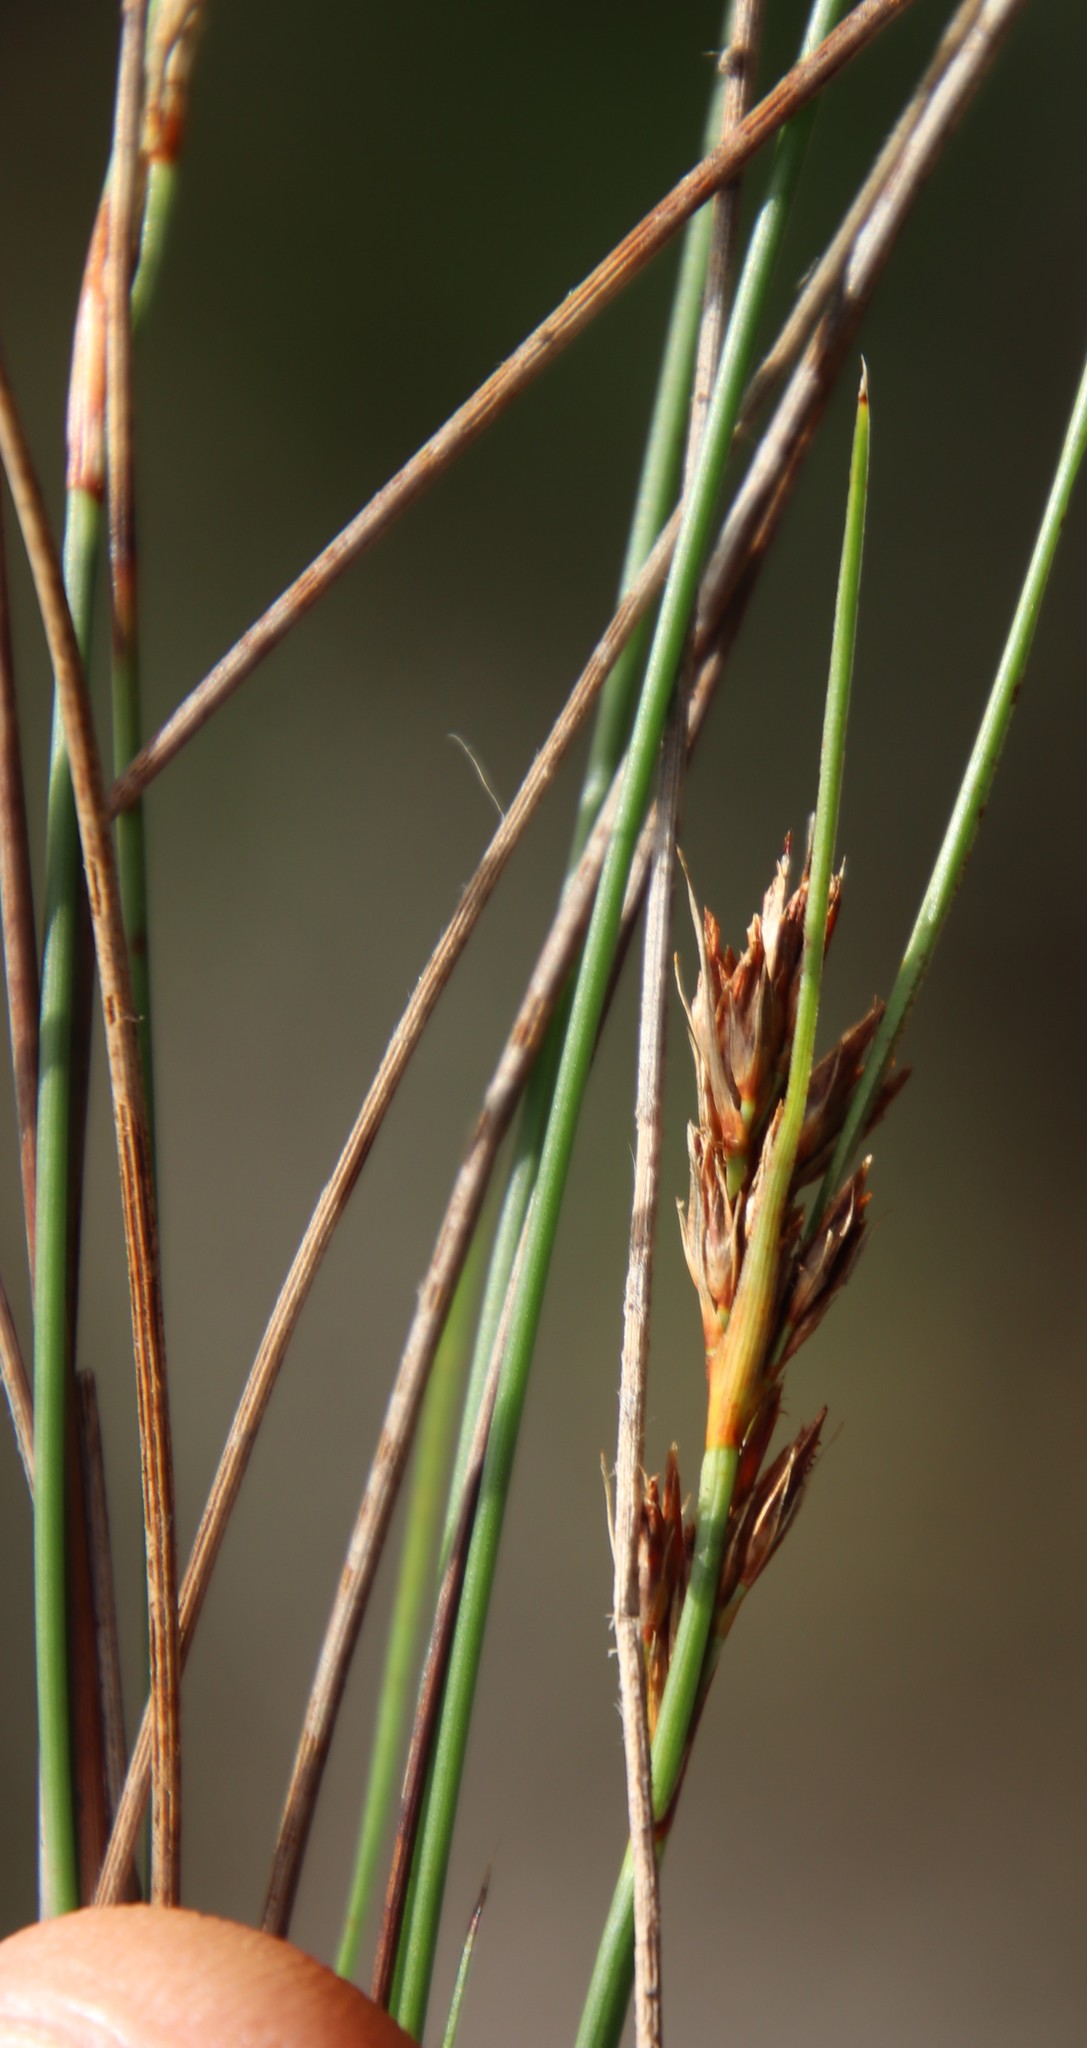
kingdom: Plantae
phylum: Tracheophyta
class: Liliopsida
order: Poales
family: Cyperaceae
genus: Schoenus
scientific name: Schoenus auritus
